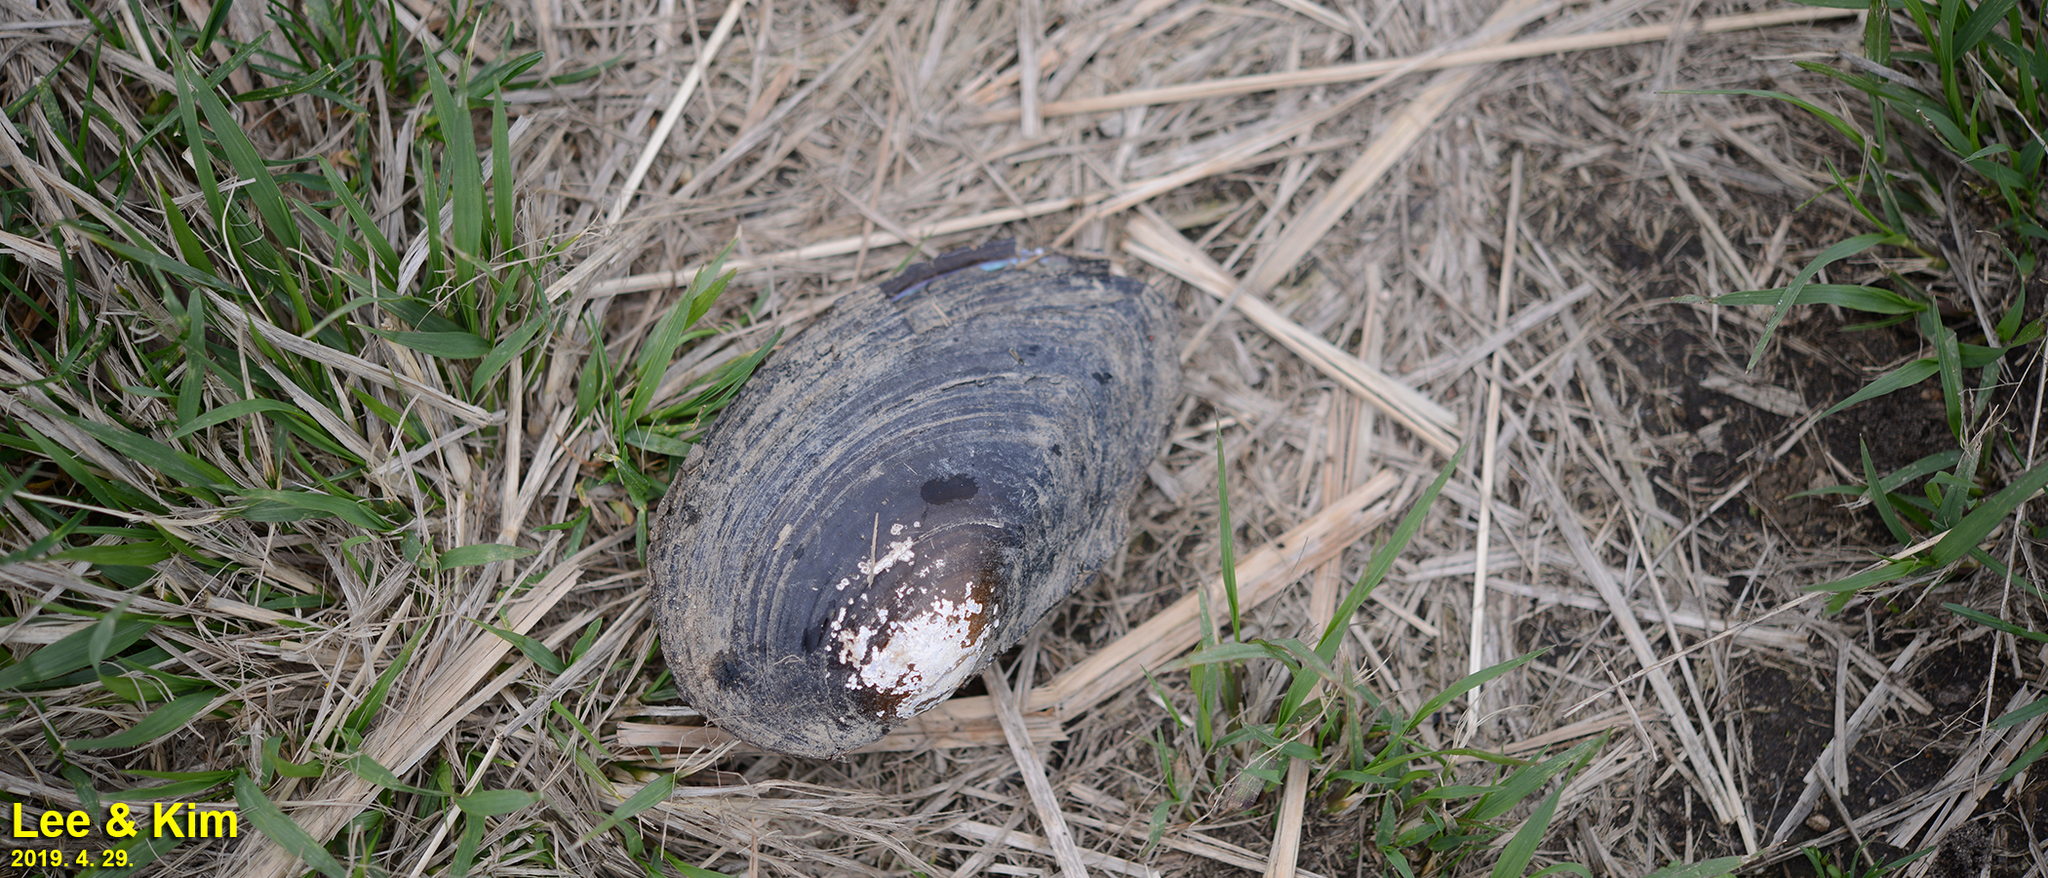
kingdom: Animalia
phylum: Mollusca
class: Bivalvia
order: Unionida
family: Unionidae
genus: Sinanodonta
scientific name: Sinanodonta schrenkii
